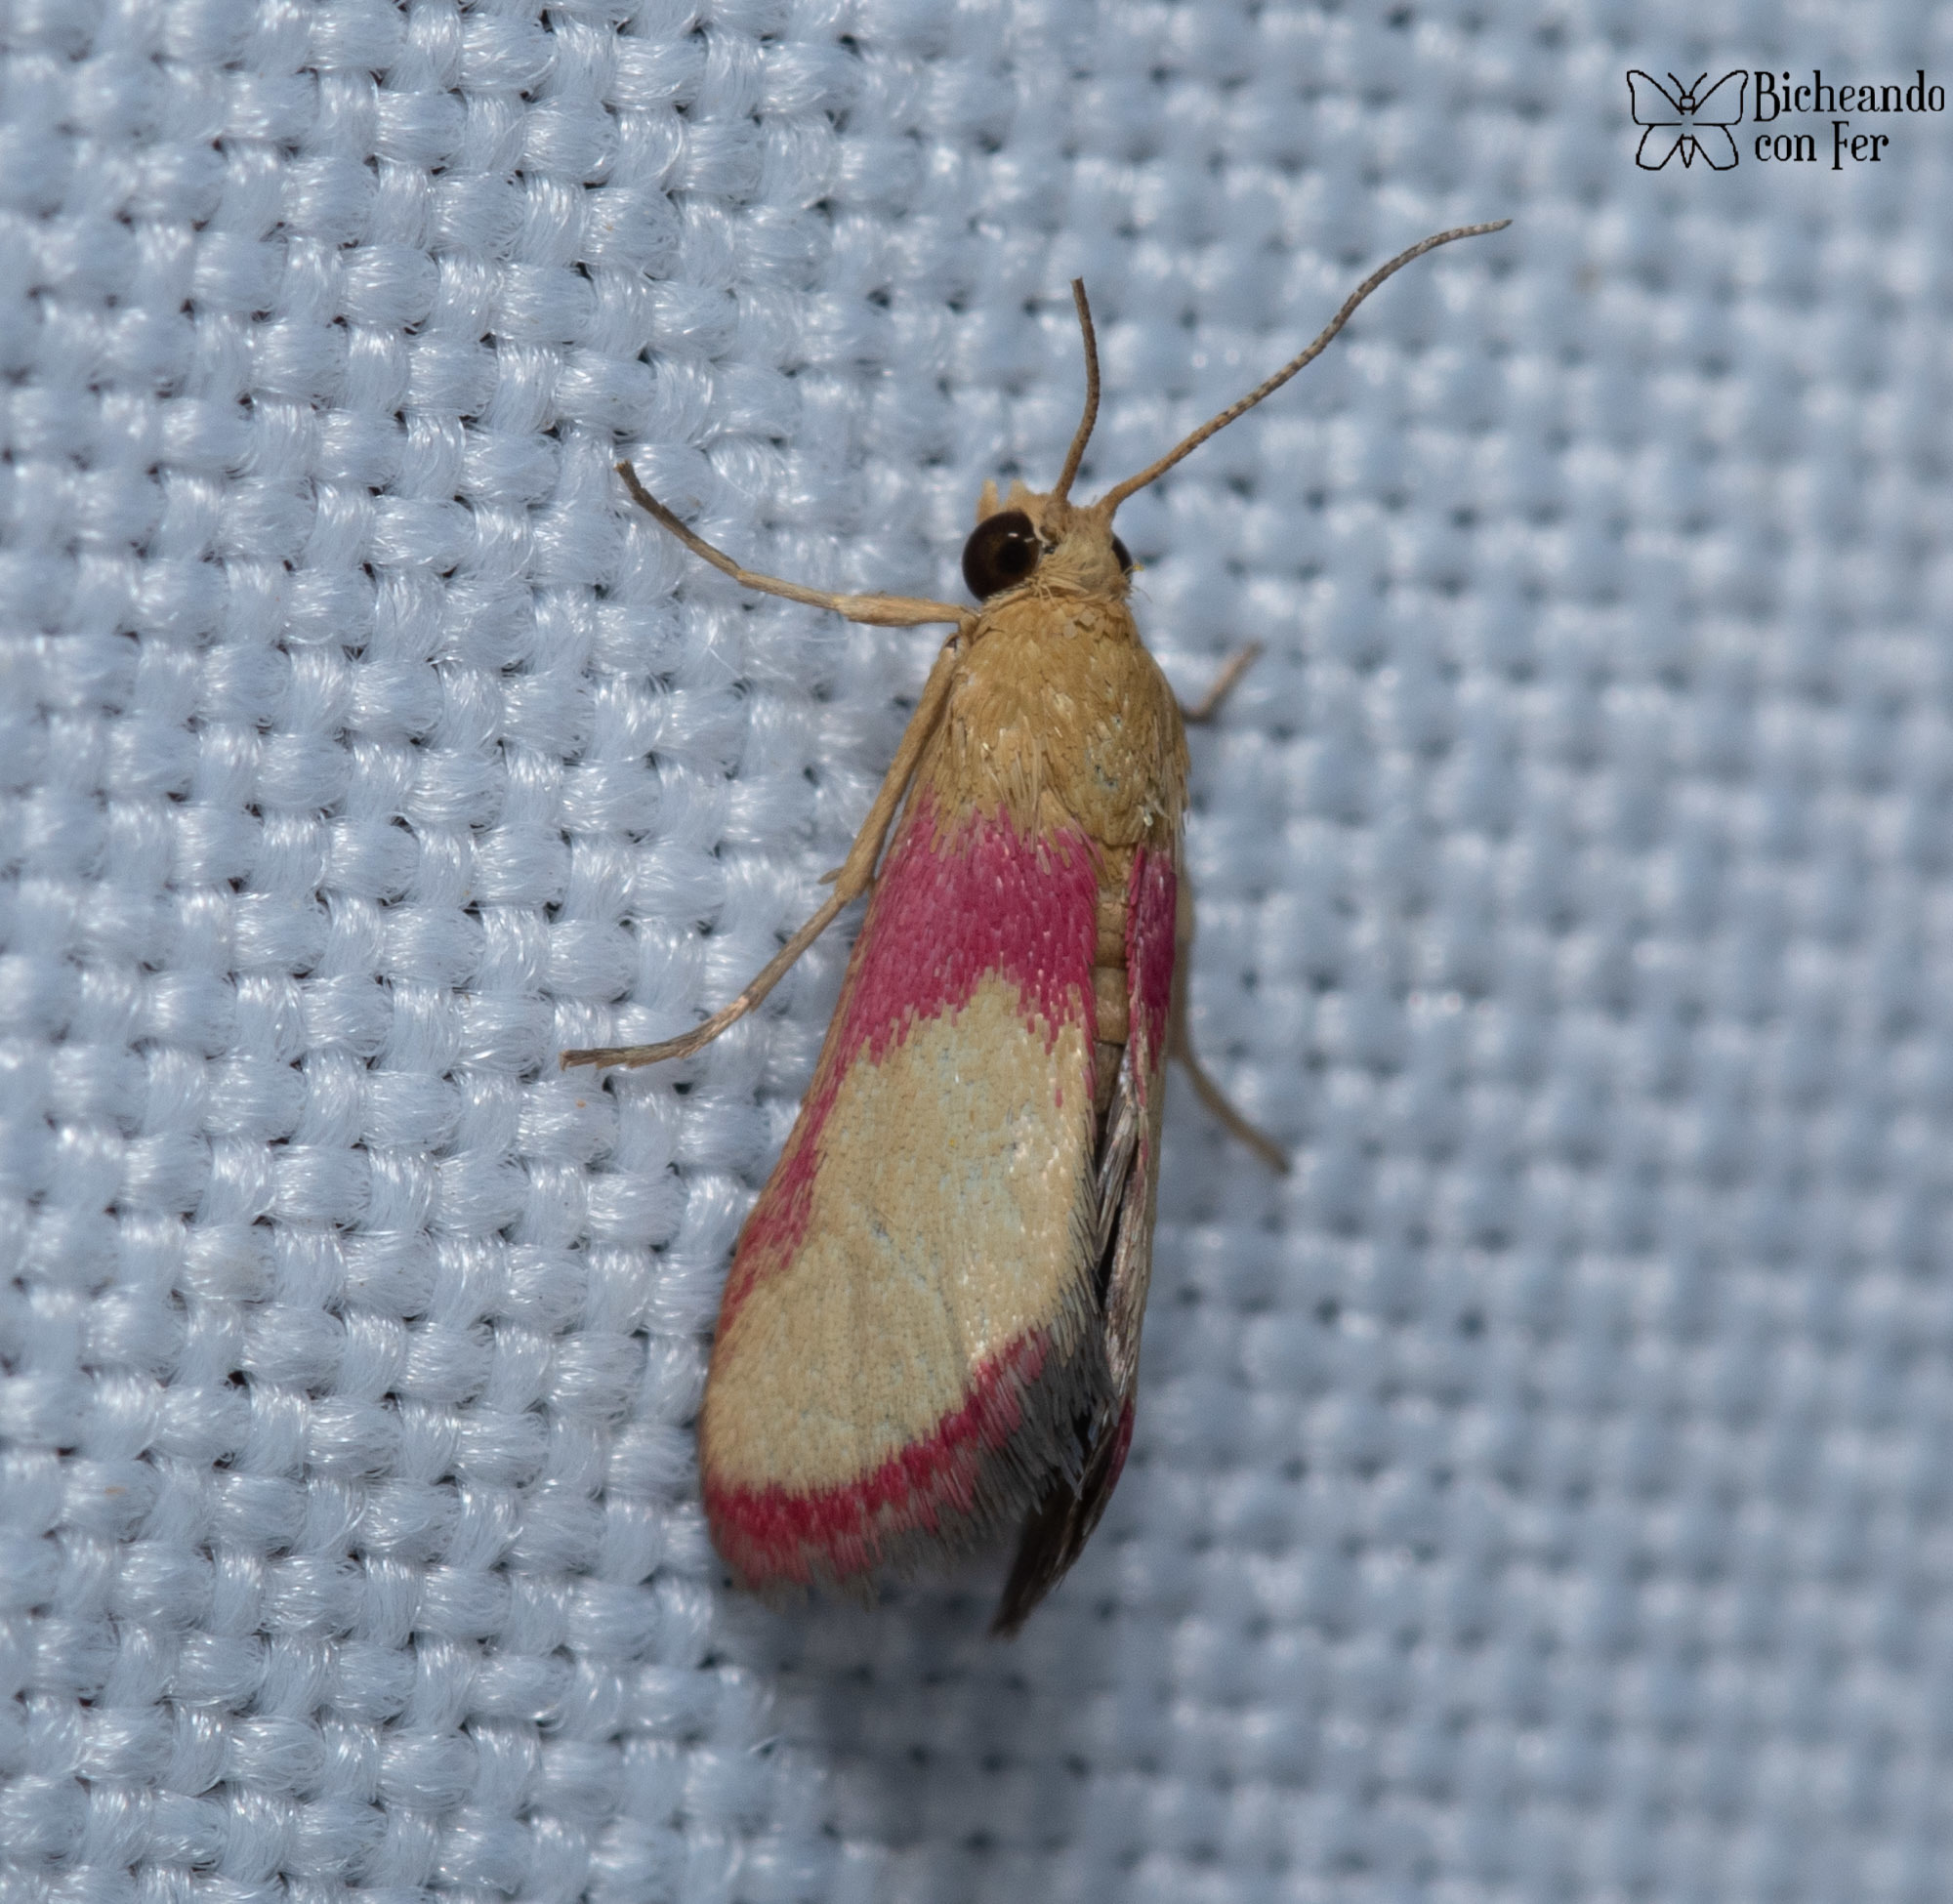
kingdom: Animalia
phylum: Arthropoda
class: Insecta
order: Lepidoptera
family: Crambidae
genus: Mojavia
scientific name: Mojavia achemonalis
